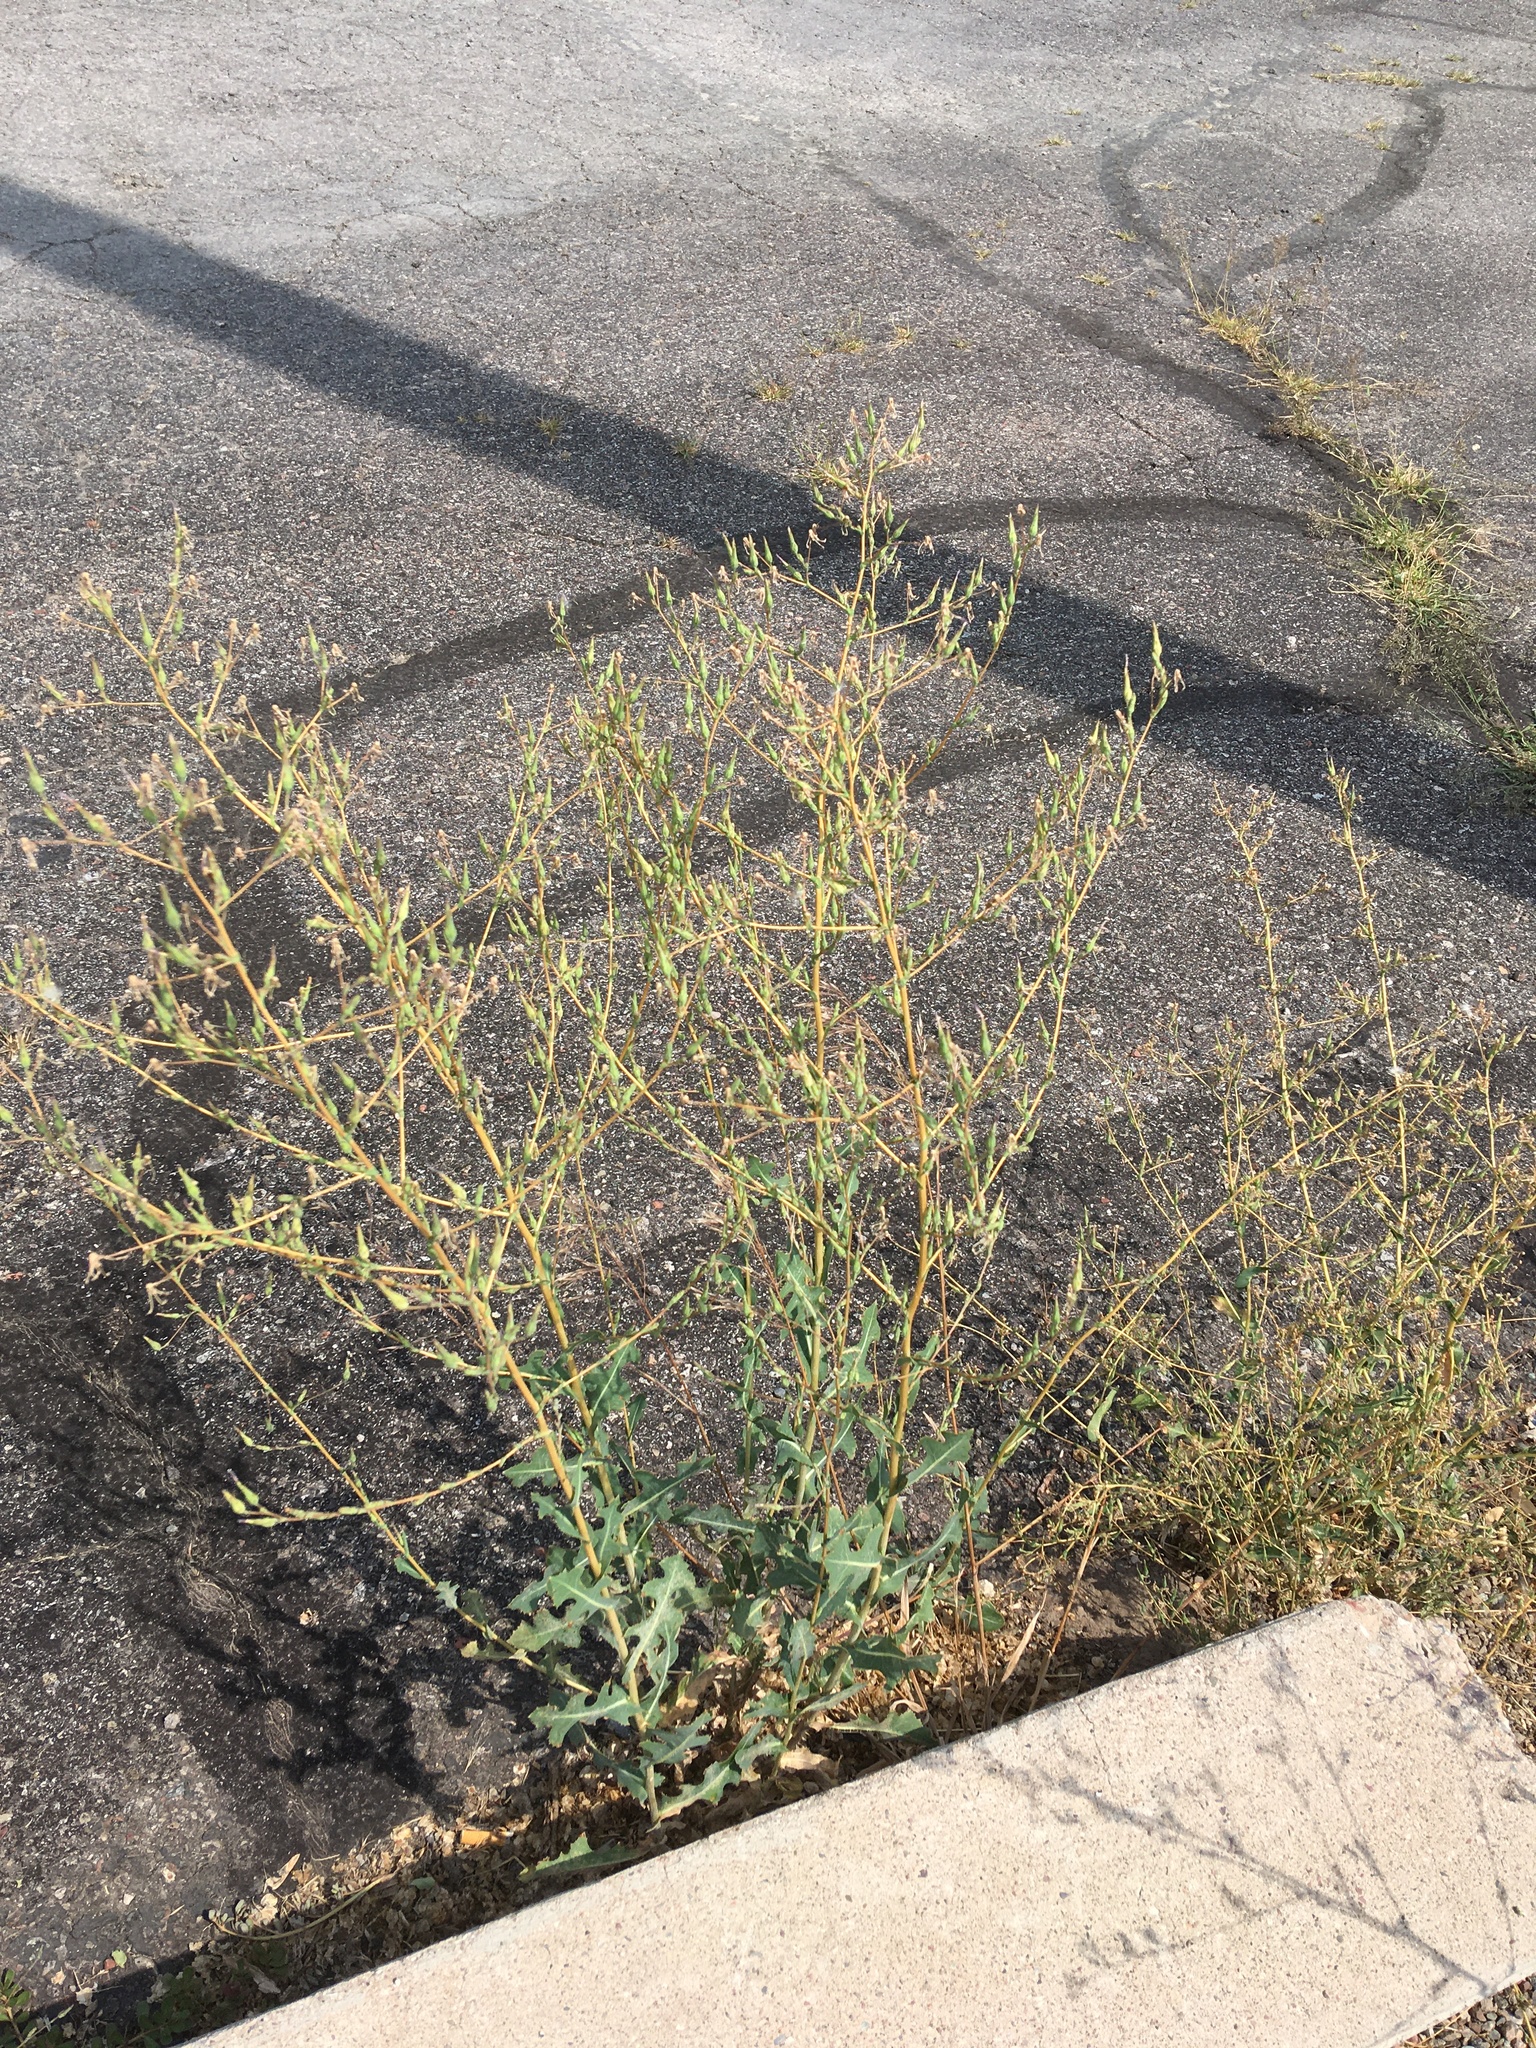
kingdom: Plantae
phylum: Tracheophyta
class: Magnoliopsida
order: Asterales
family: Asteraceae
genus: Lactuca
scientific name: Lactuca serriola
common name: Prickly lettuce
